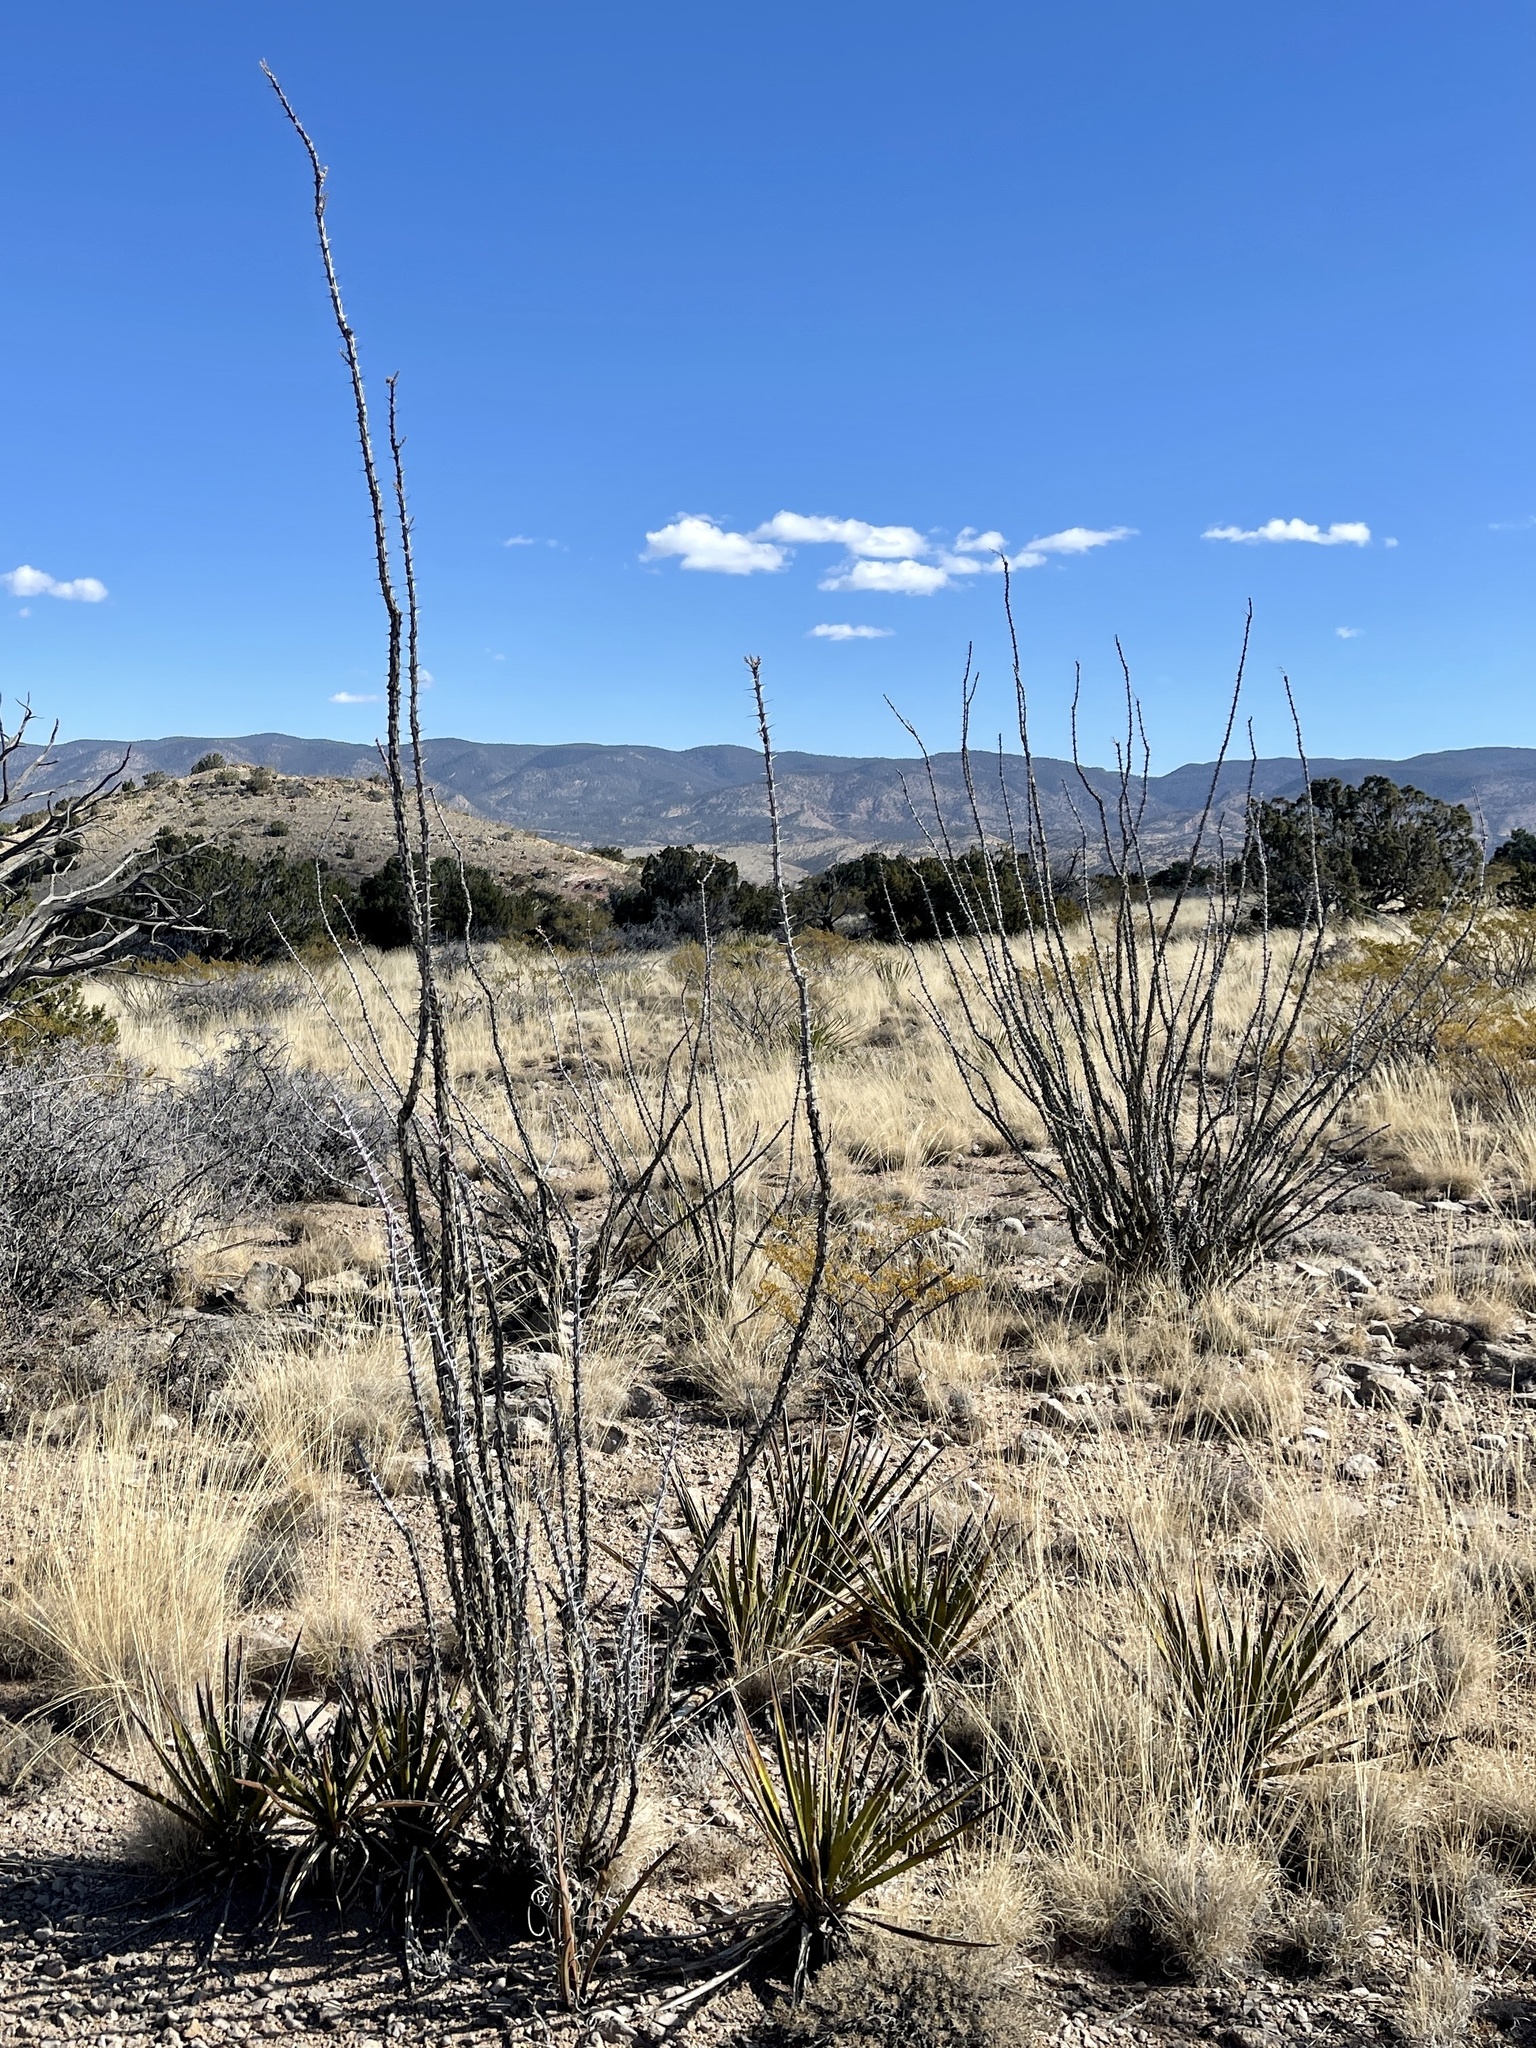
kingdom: Plantae
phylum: Tracheophyta
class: Magnoliopsida
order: Ericales
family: Fouquieriaceae
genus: Fouquieria
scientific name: Fouquieria splendens
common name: Vine-cactus
